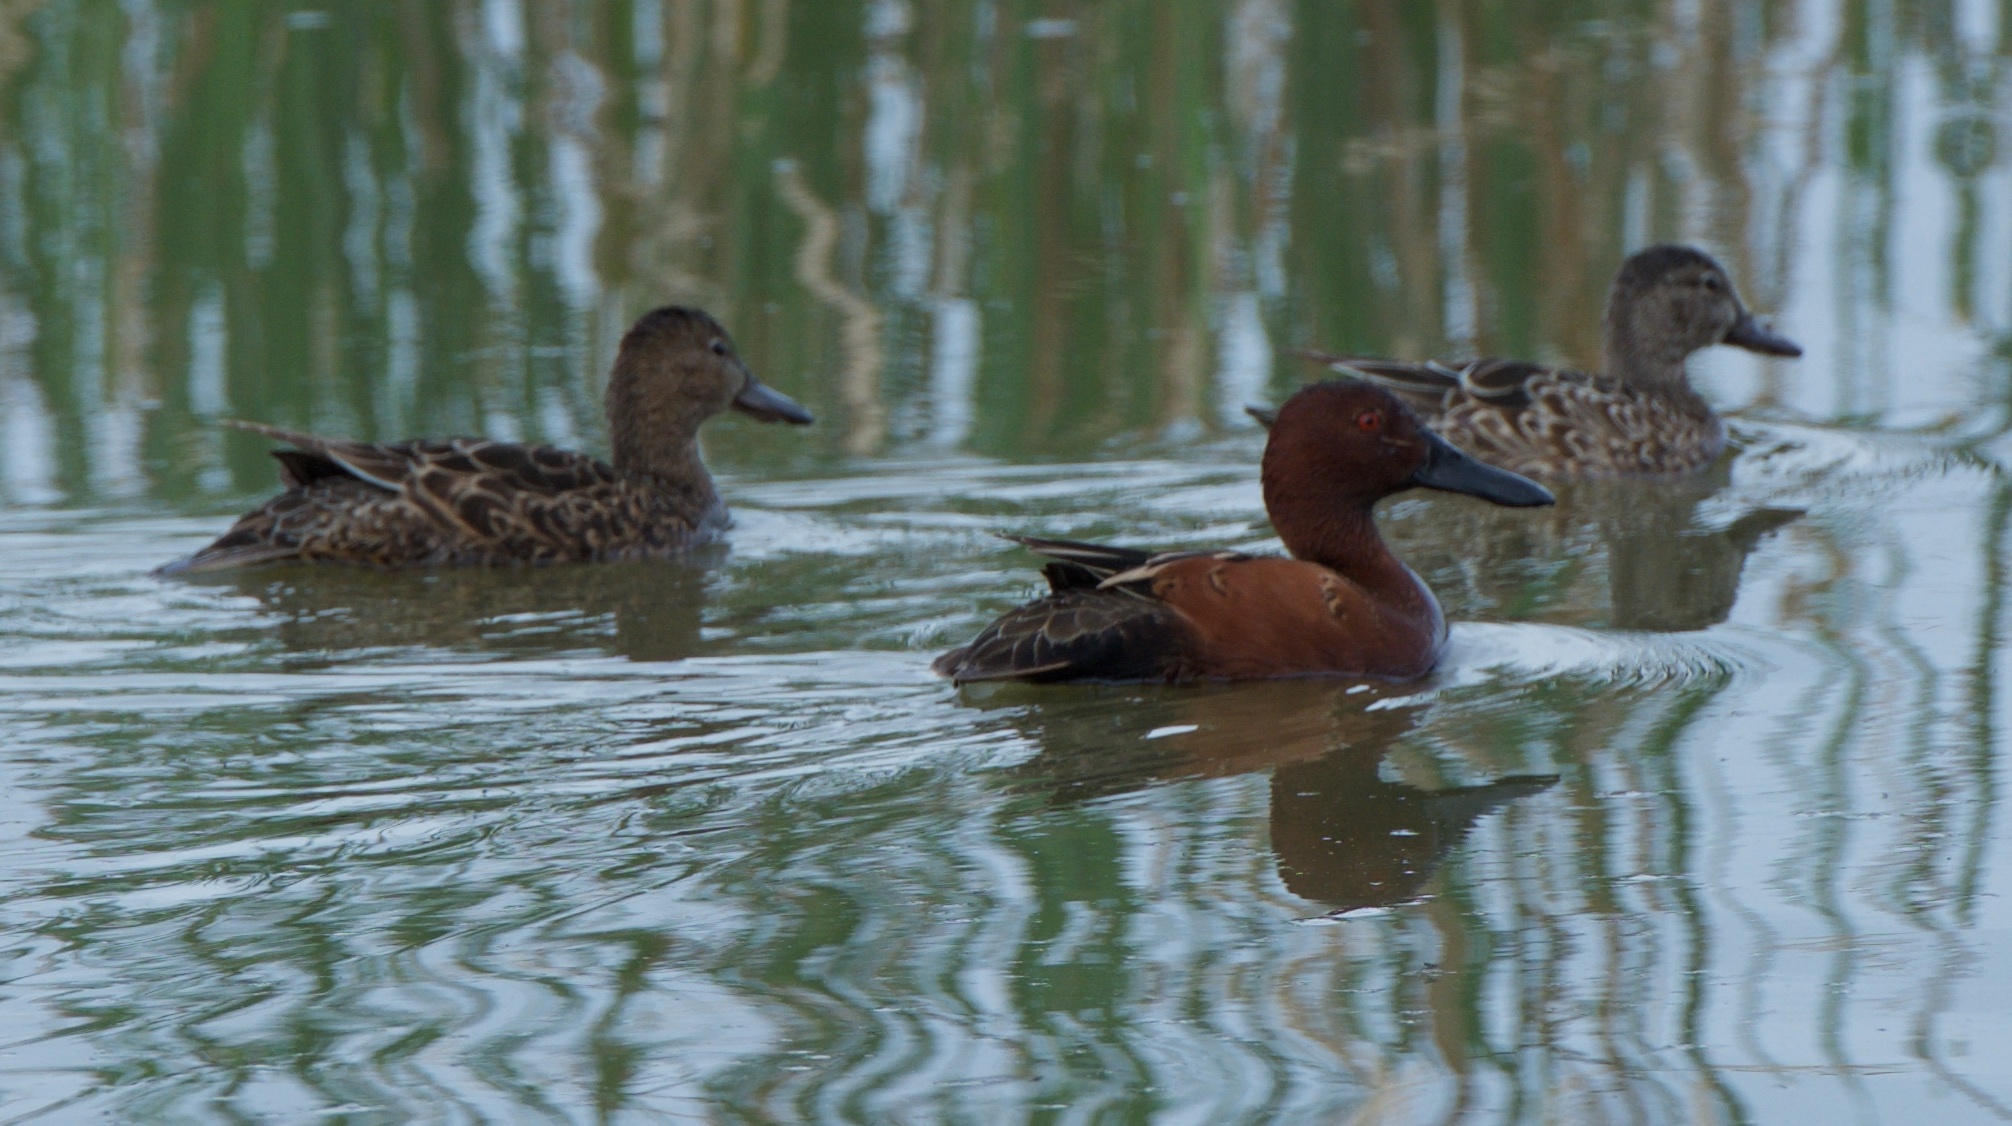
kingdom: Animalia
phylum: Chordata
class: Aves
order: Anseriformes
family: Anatidae
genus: Spatula
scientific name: Spatula cyanoptera
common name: Cinnamon teal
